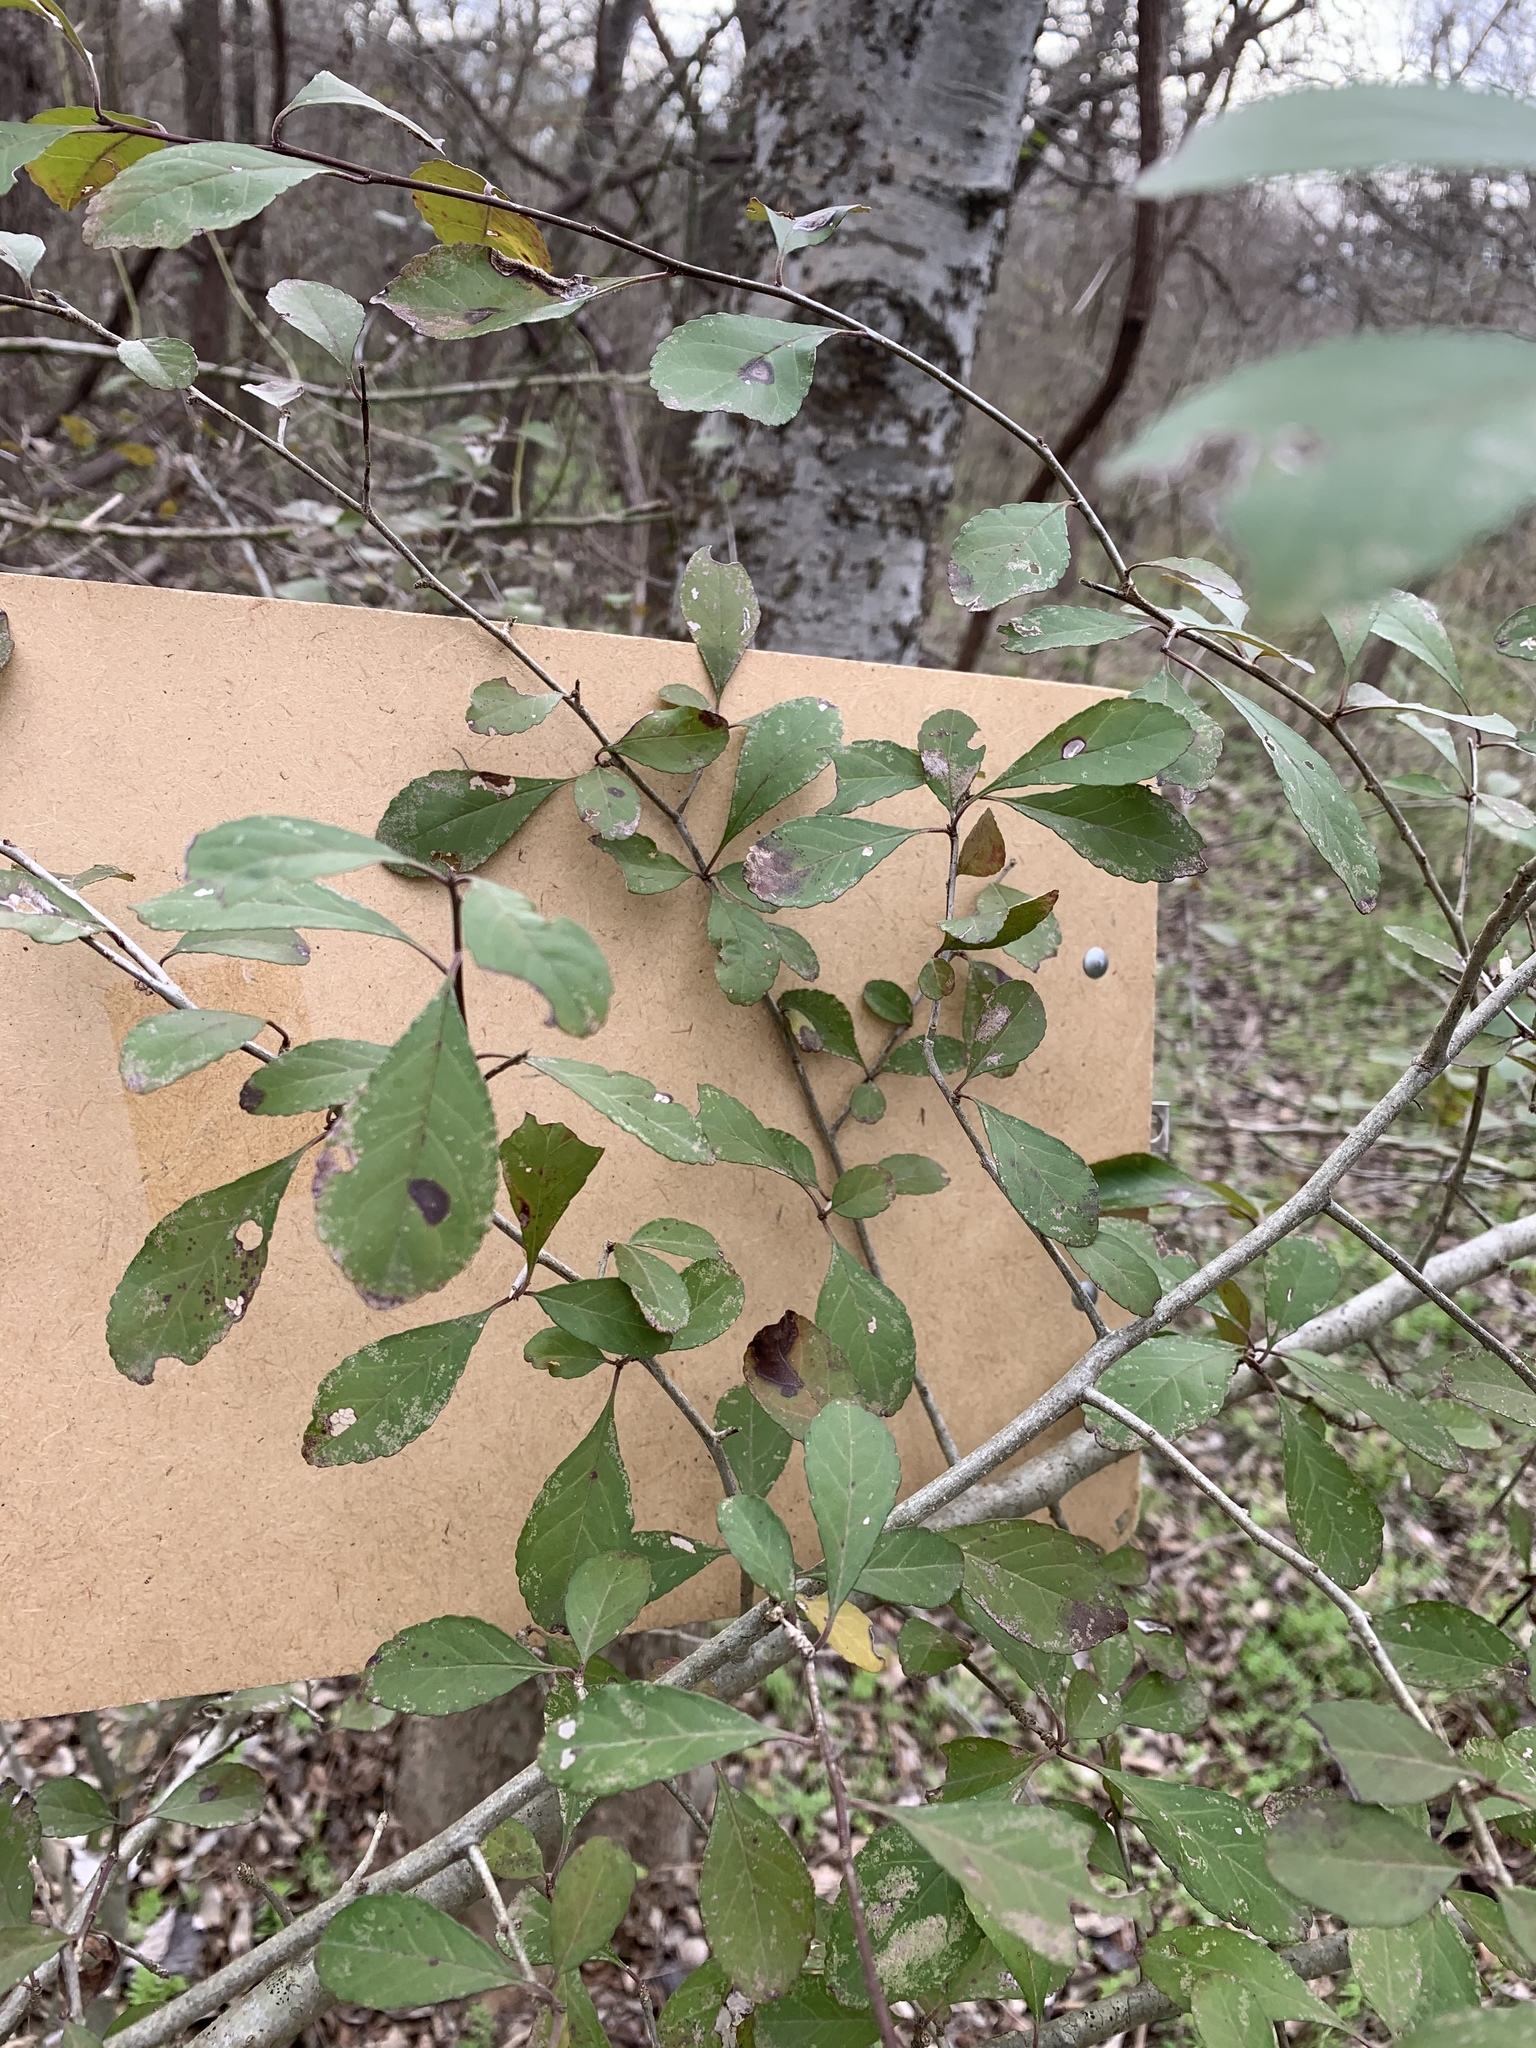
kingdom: Plantae
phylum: Tracheophyta
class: Magnoliopsida
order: Aquifoliales
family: Aquifoliaceae
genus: Ilex
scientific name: Ilex decidua
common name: Possum-haw
